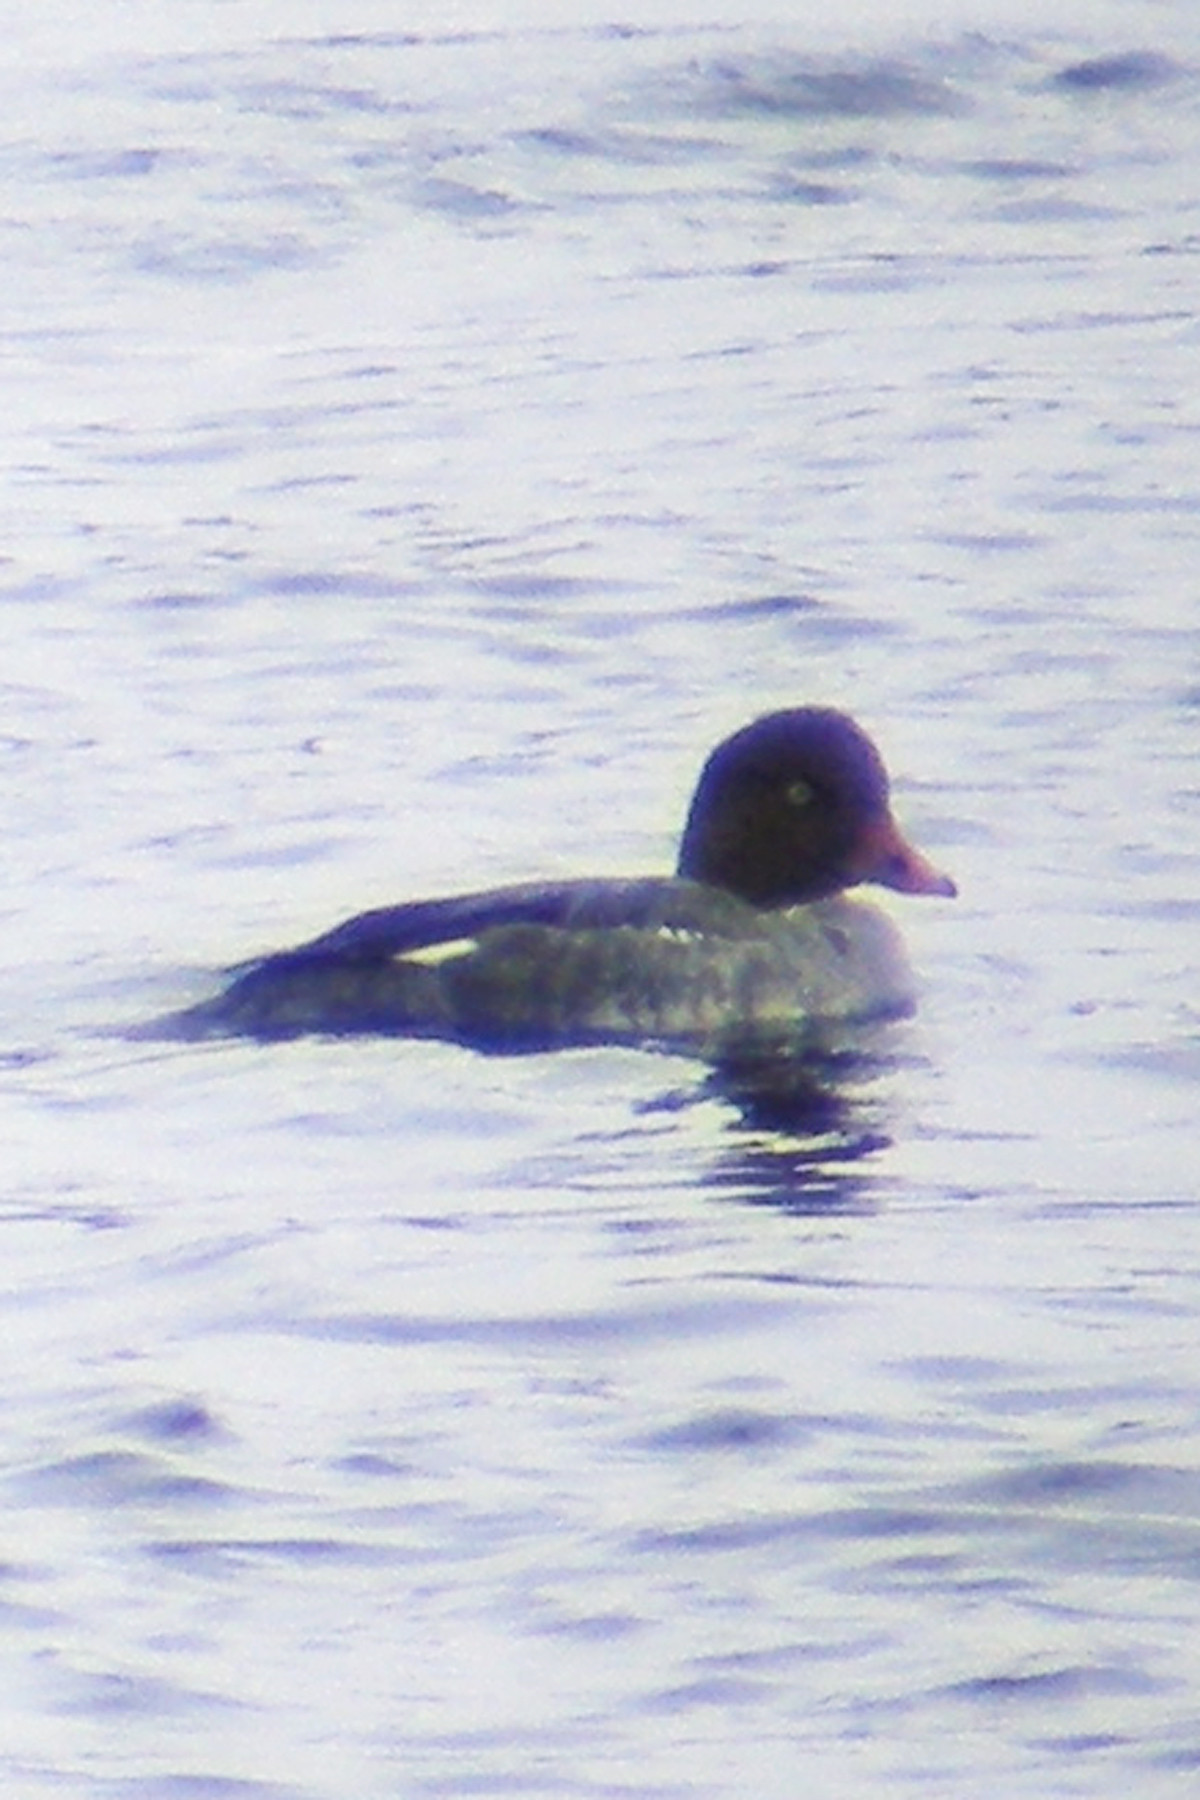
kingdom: Animalia
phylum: Chordata
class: Aves
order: Anseriformes
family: Anatidae
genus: Bucephala
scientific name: Bucephala clangula
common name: Common goldeneye
